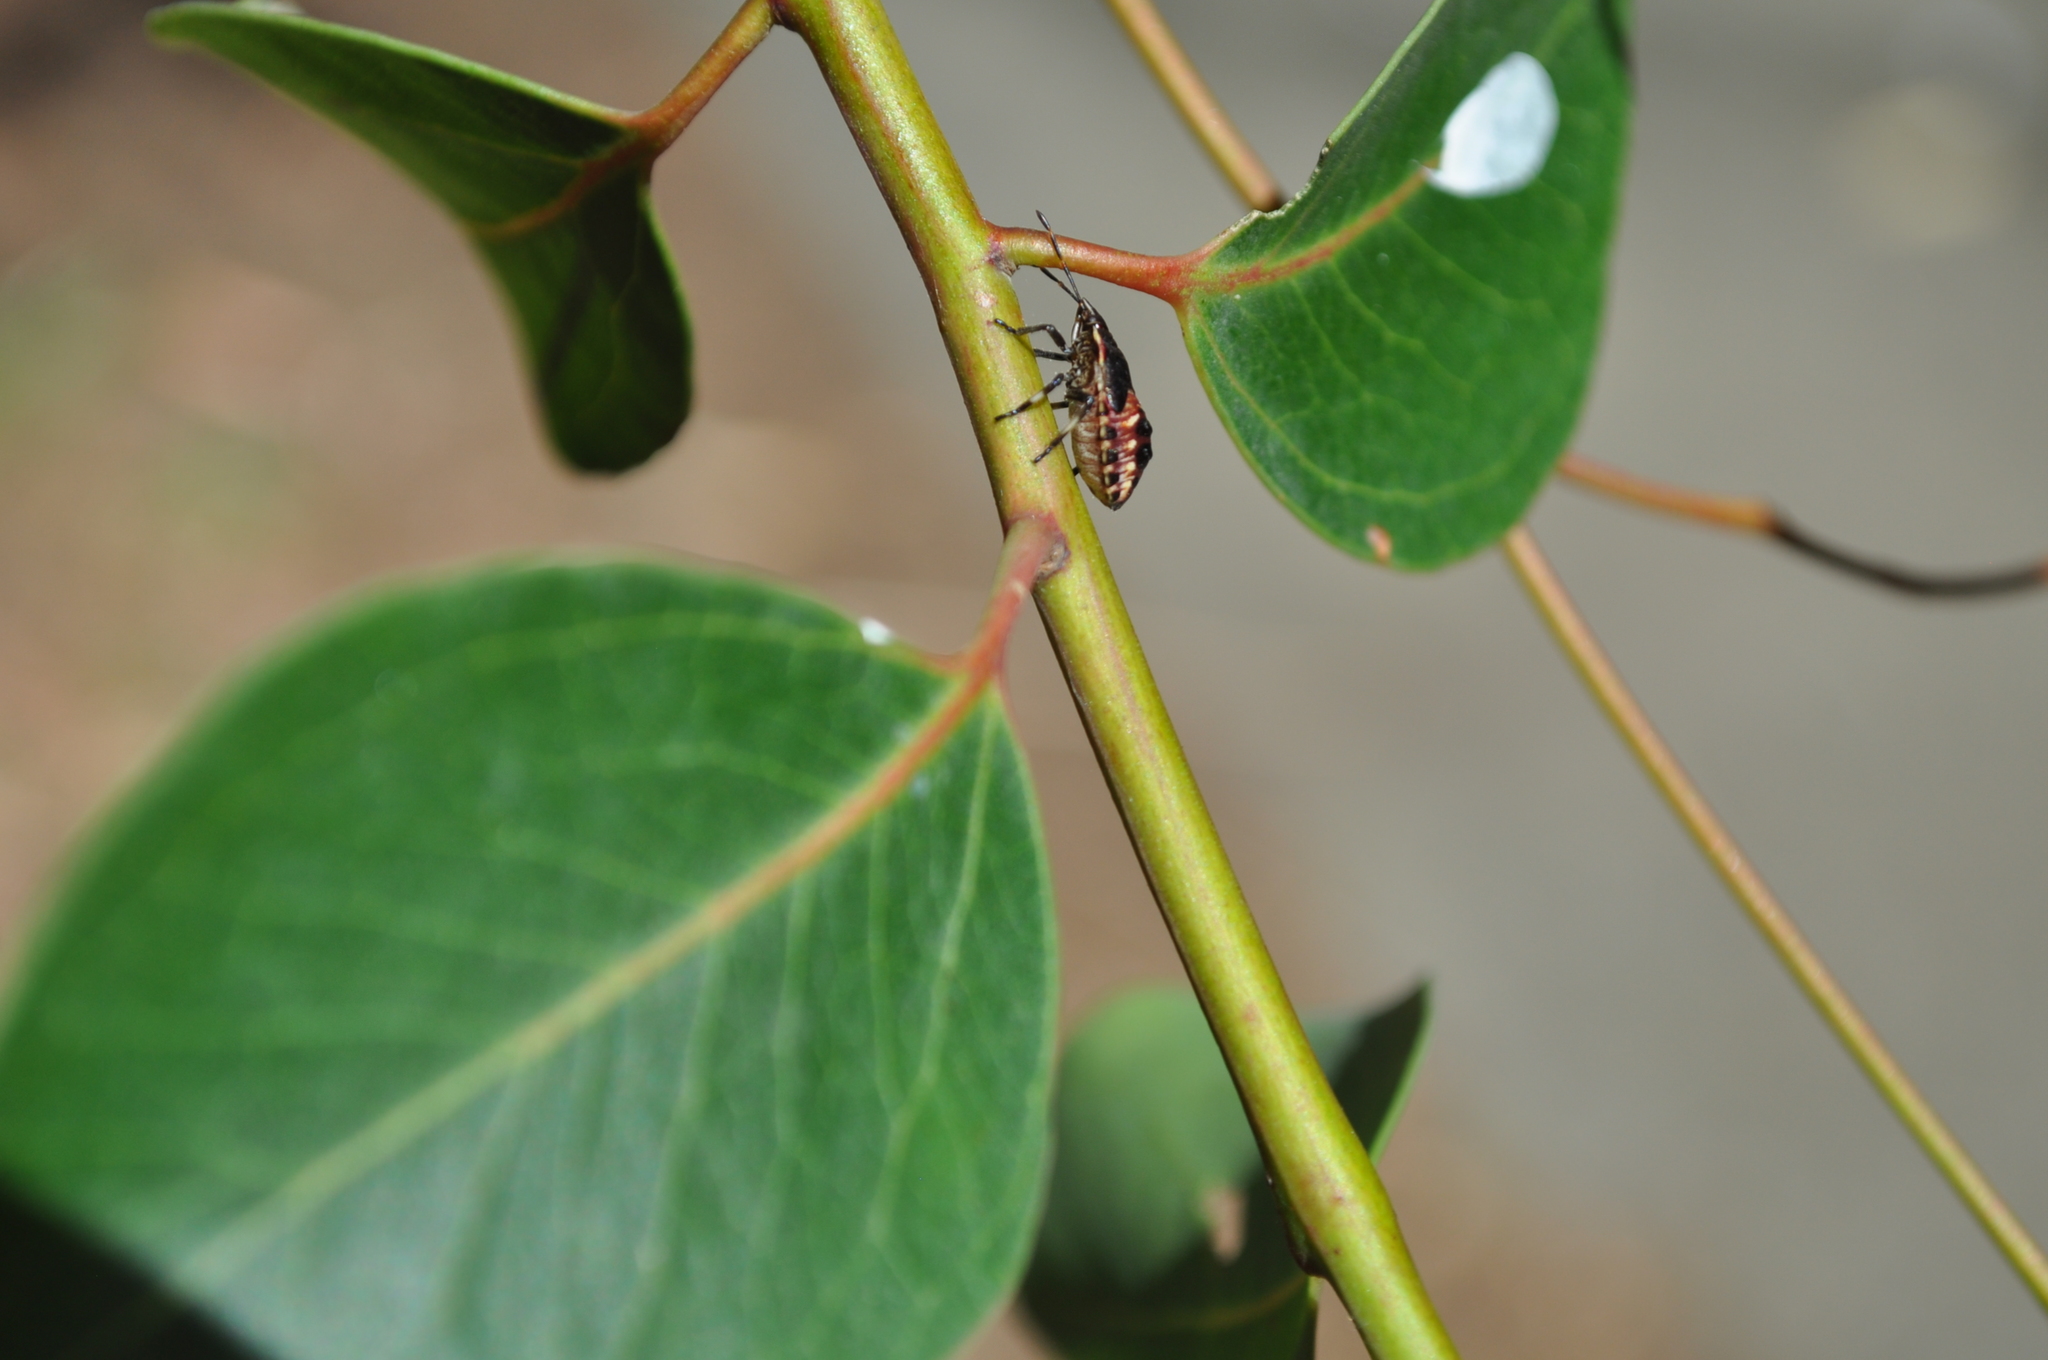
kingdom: Animalia
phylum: Arthropoda
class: Insecta
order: Hemiptera
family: Pentatomidae
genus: Oechalia
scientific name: Oechalia schellenbergii
